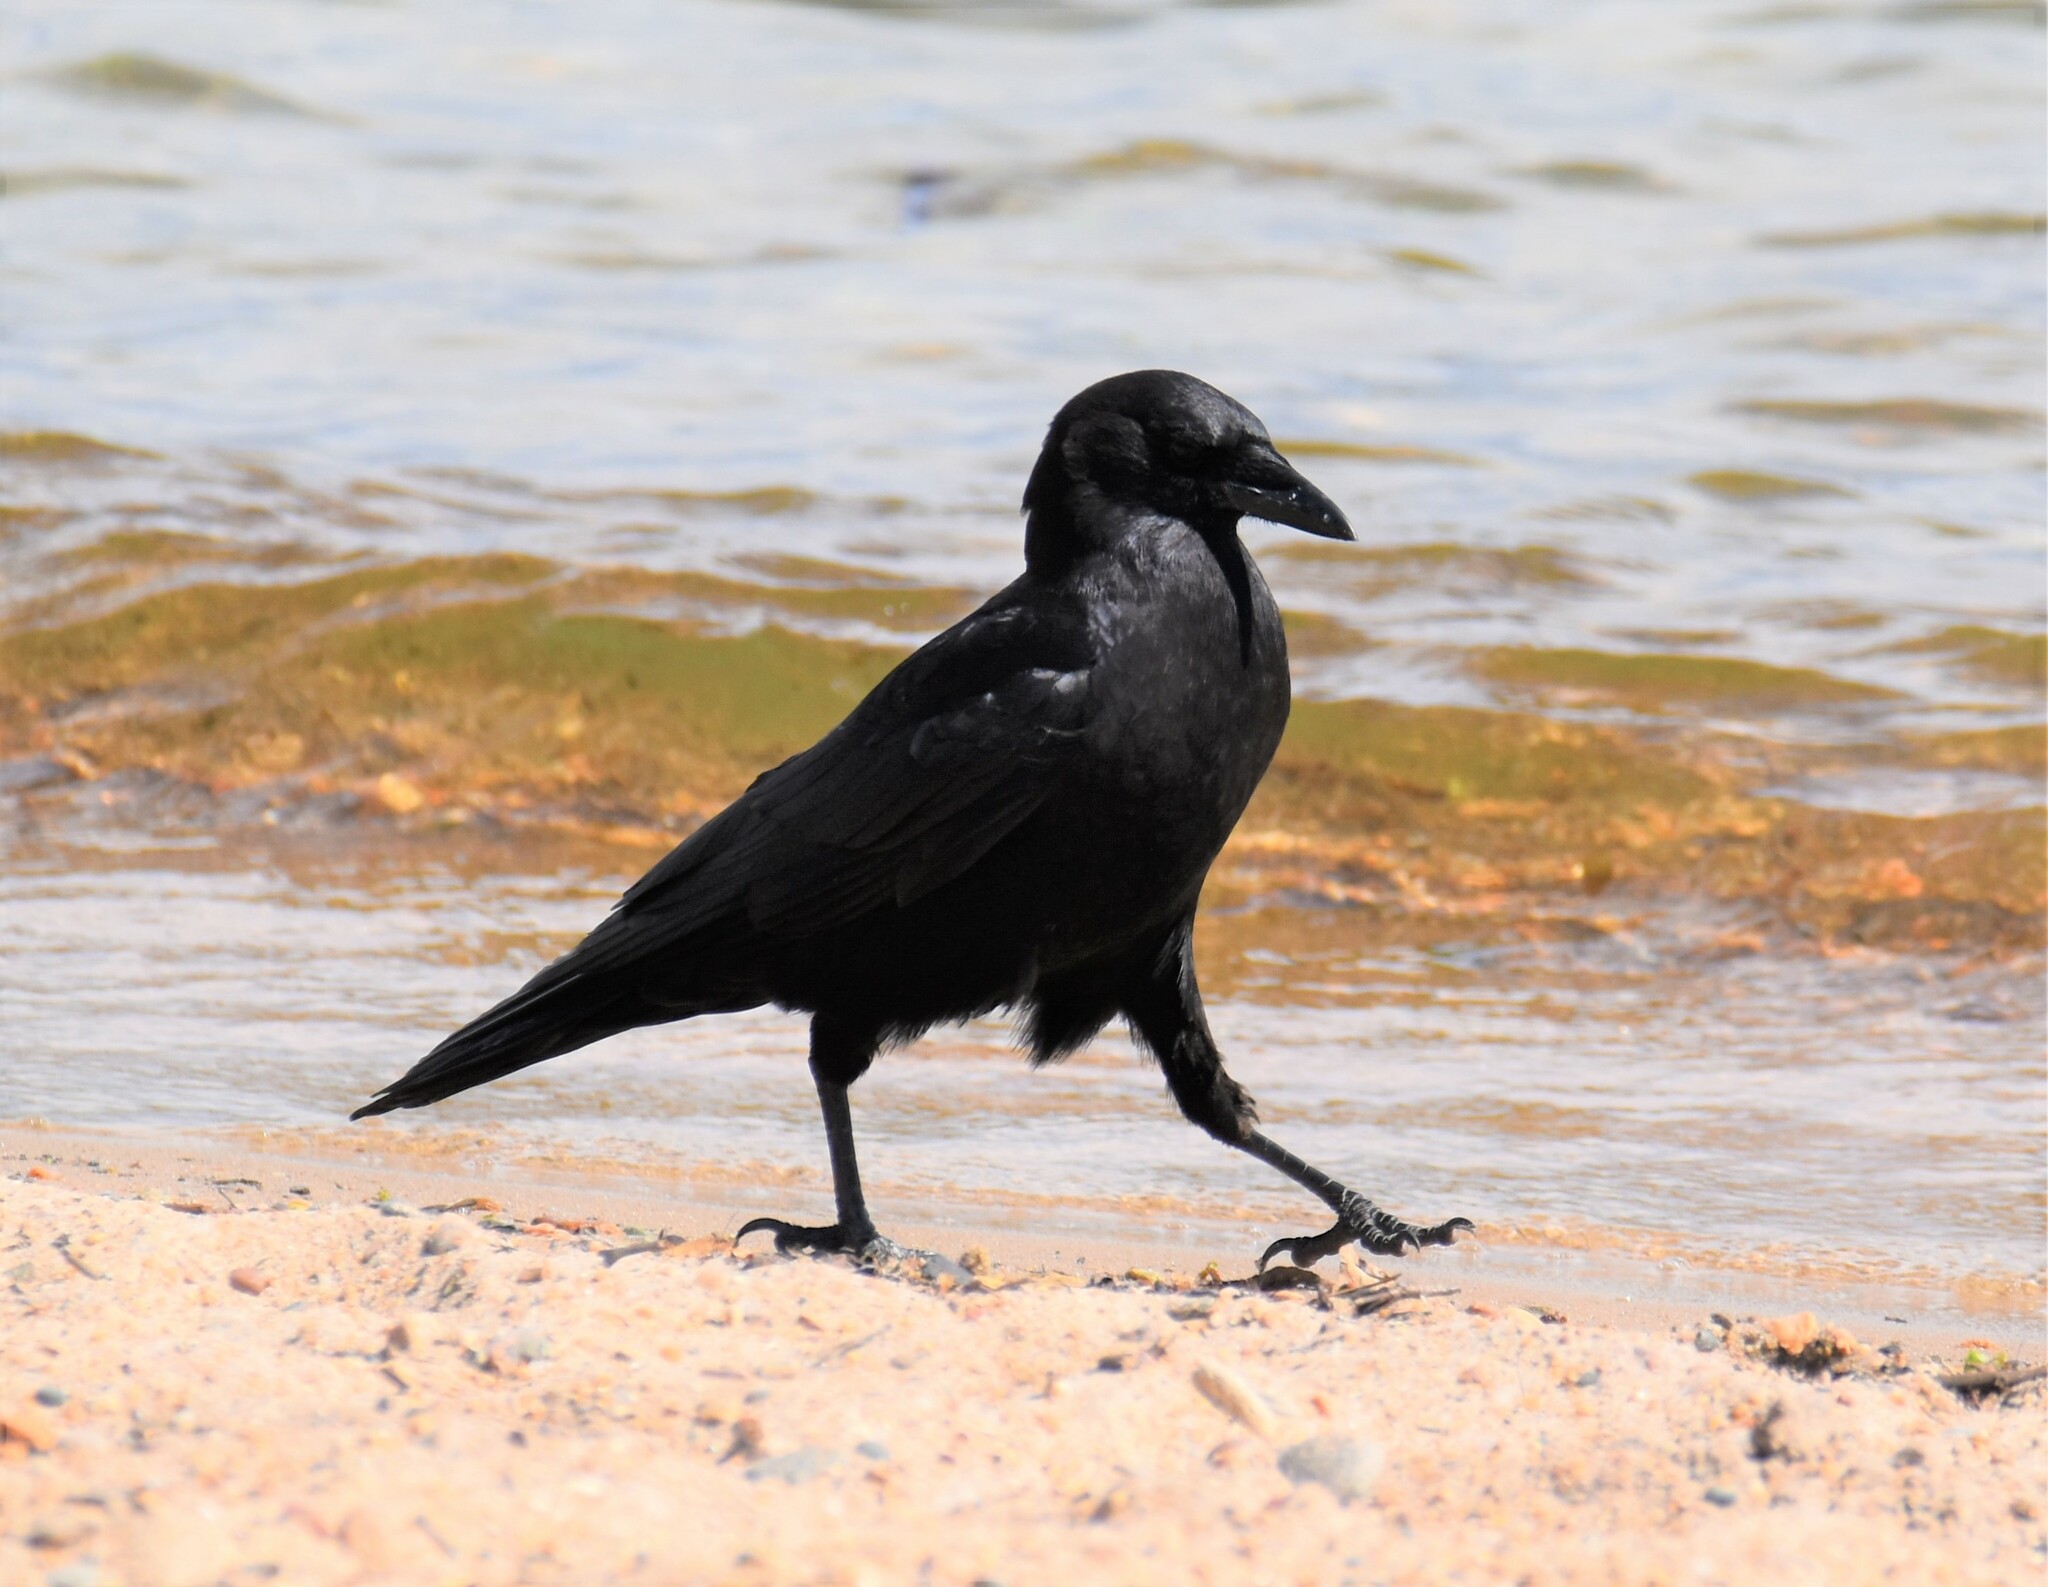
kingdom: Animalia
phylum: Chordata
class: Aves
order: Passeriformes
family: Corvidae
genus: Corvus
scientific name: Corvus brachyrhynchos
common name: American crow
